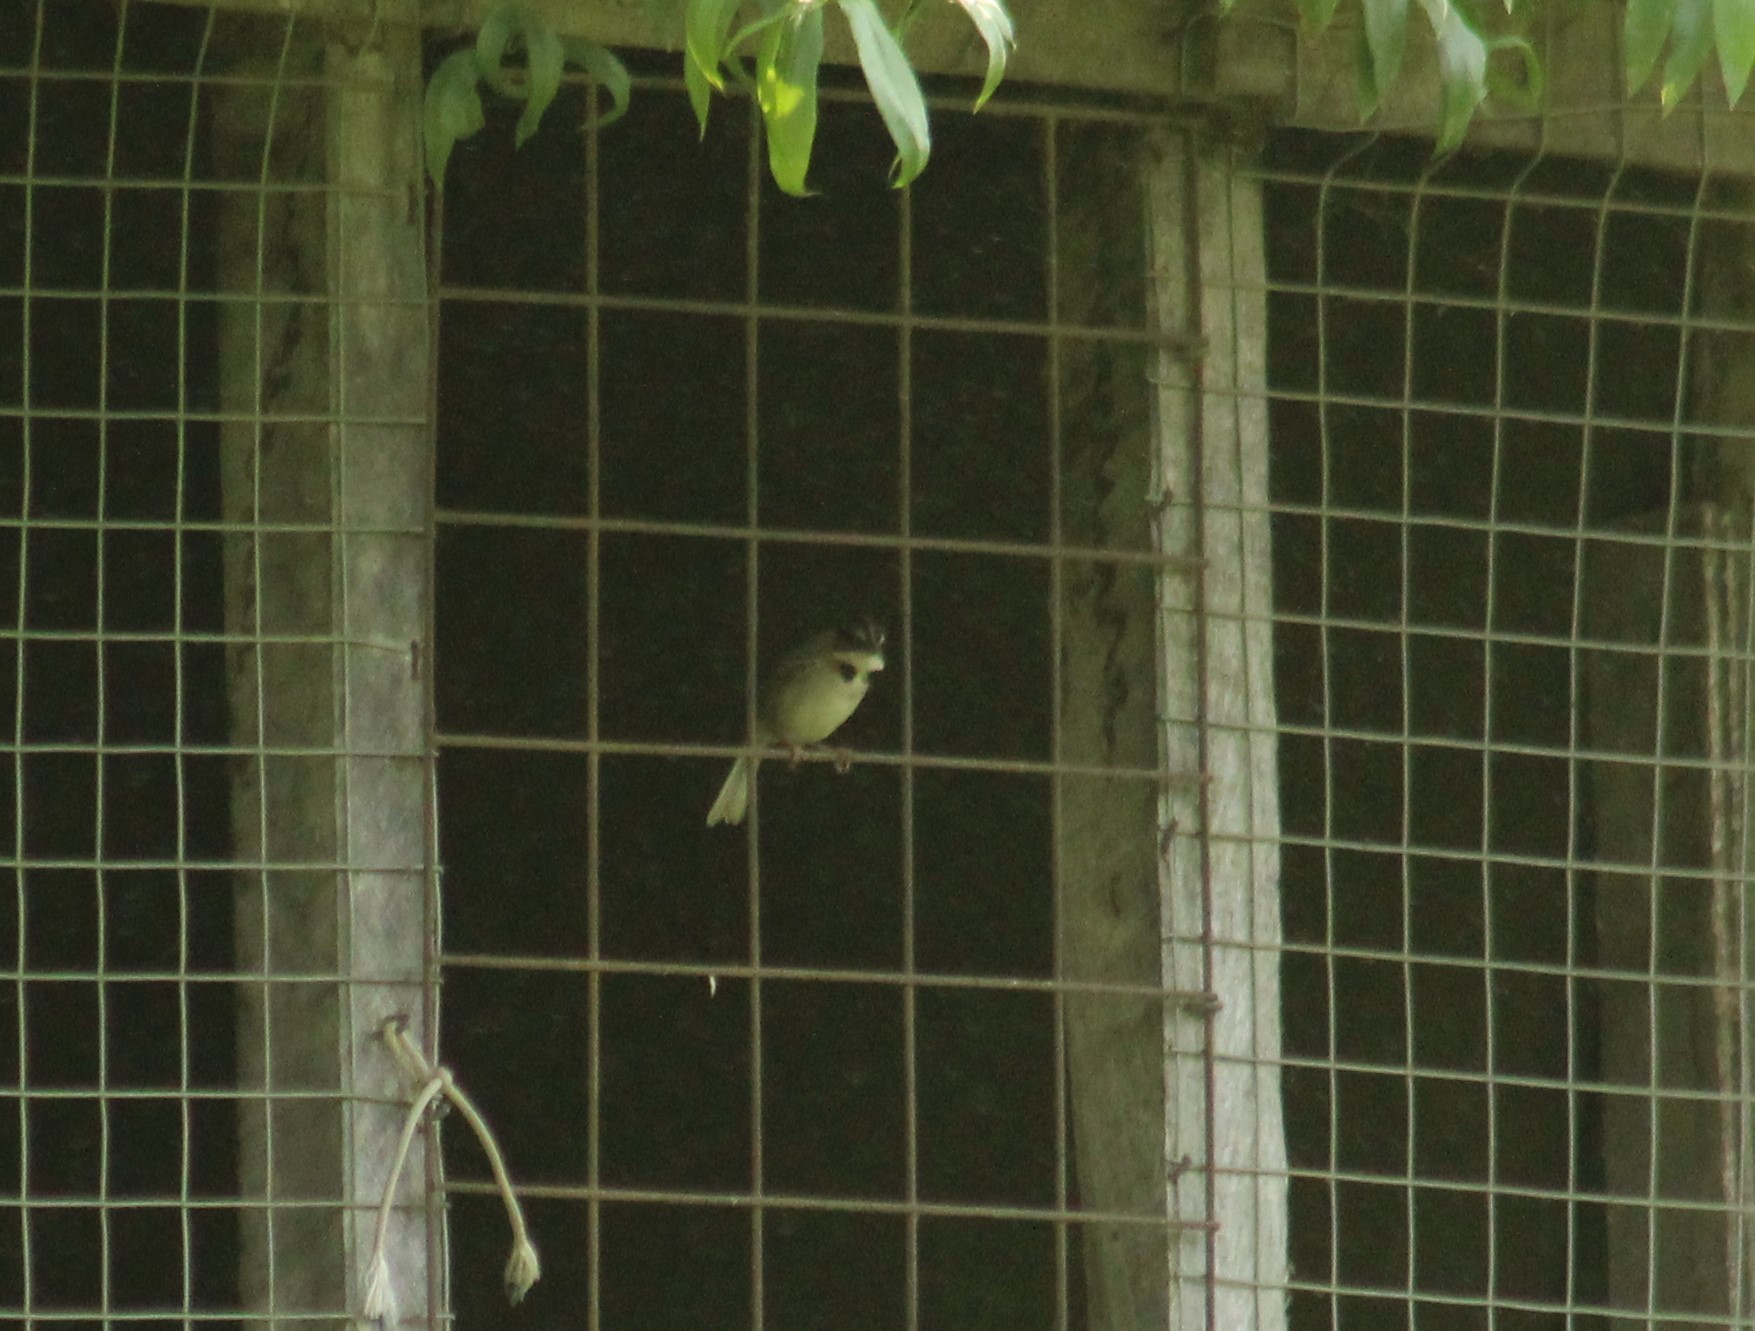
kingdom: Animalia
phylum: Chordata
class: Aves
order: Passeriformes
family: Passerellidae
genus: Zonotrichia
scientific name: Zonotrichia capensis
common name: Rufous-collared sparrow
